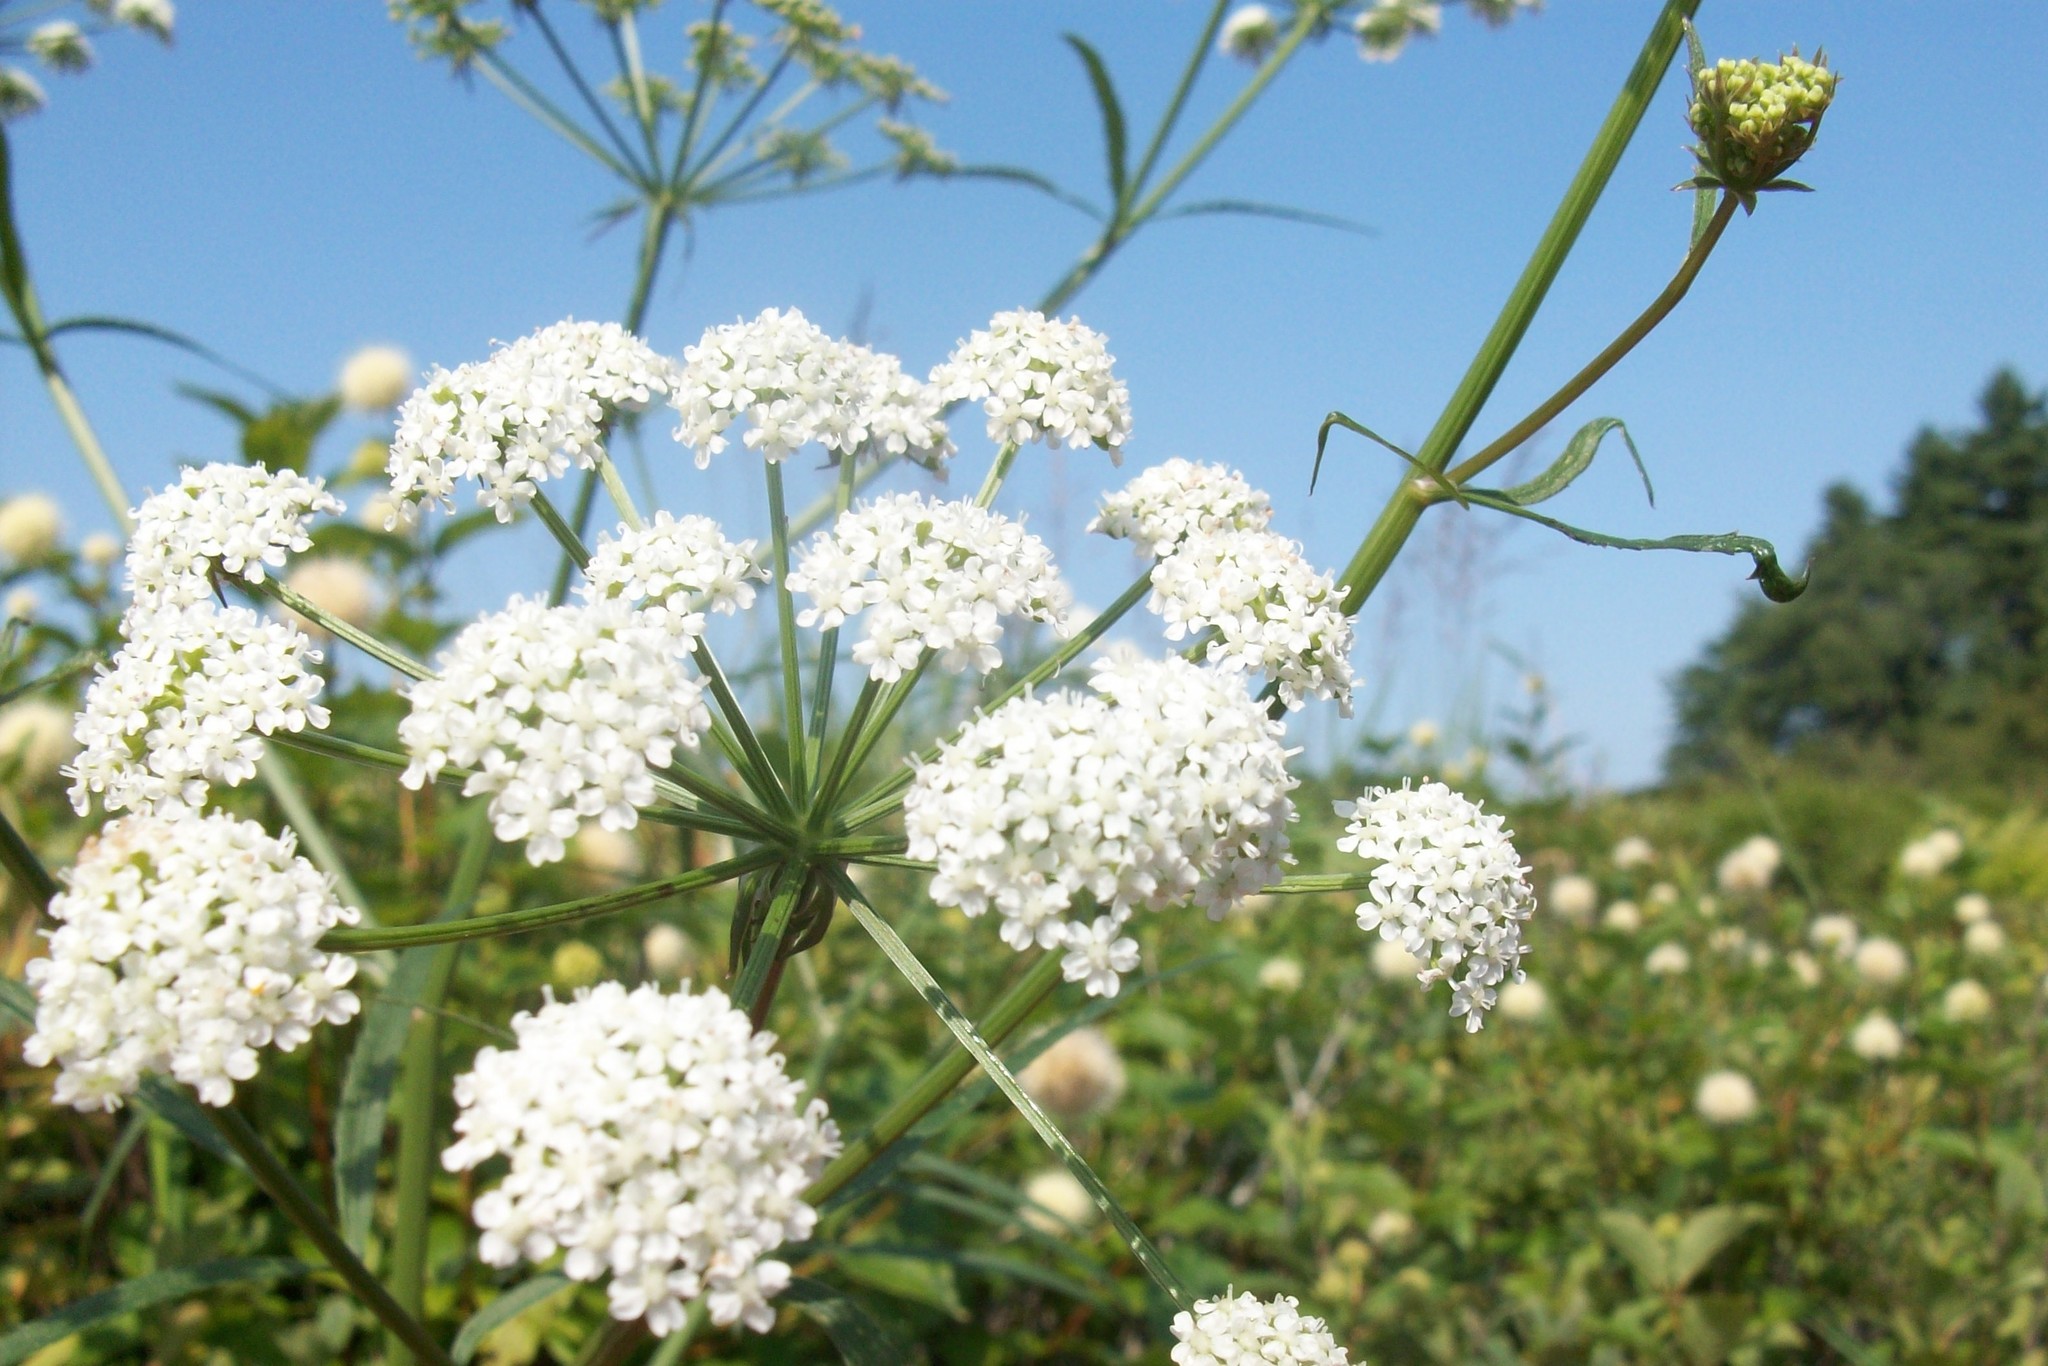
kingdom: Plantae
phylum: Tracheophyta
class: Magnoliopsida
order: Apiales
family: Apiaceae
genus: Sium
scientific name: Sium suave
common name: Hemlock water-parsnip
